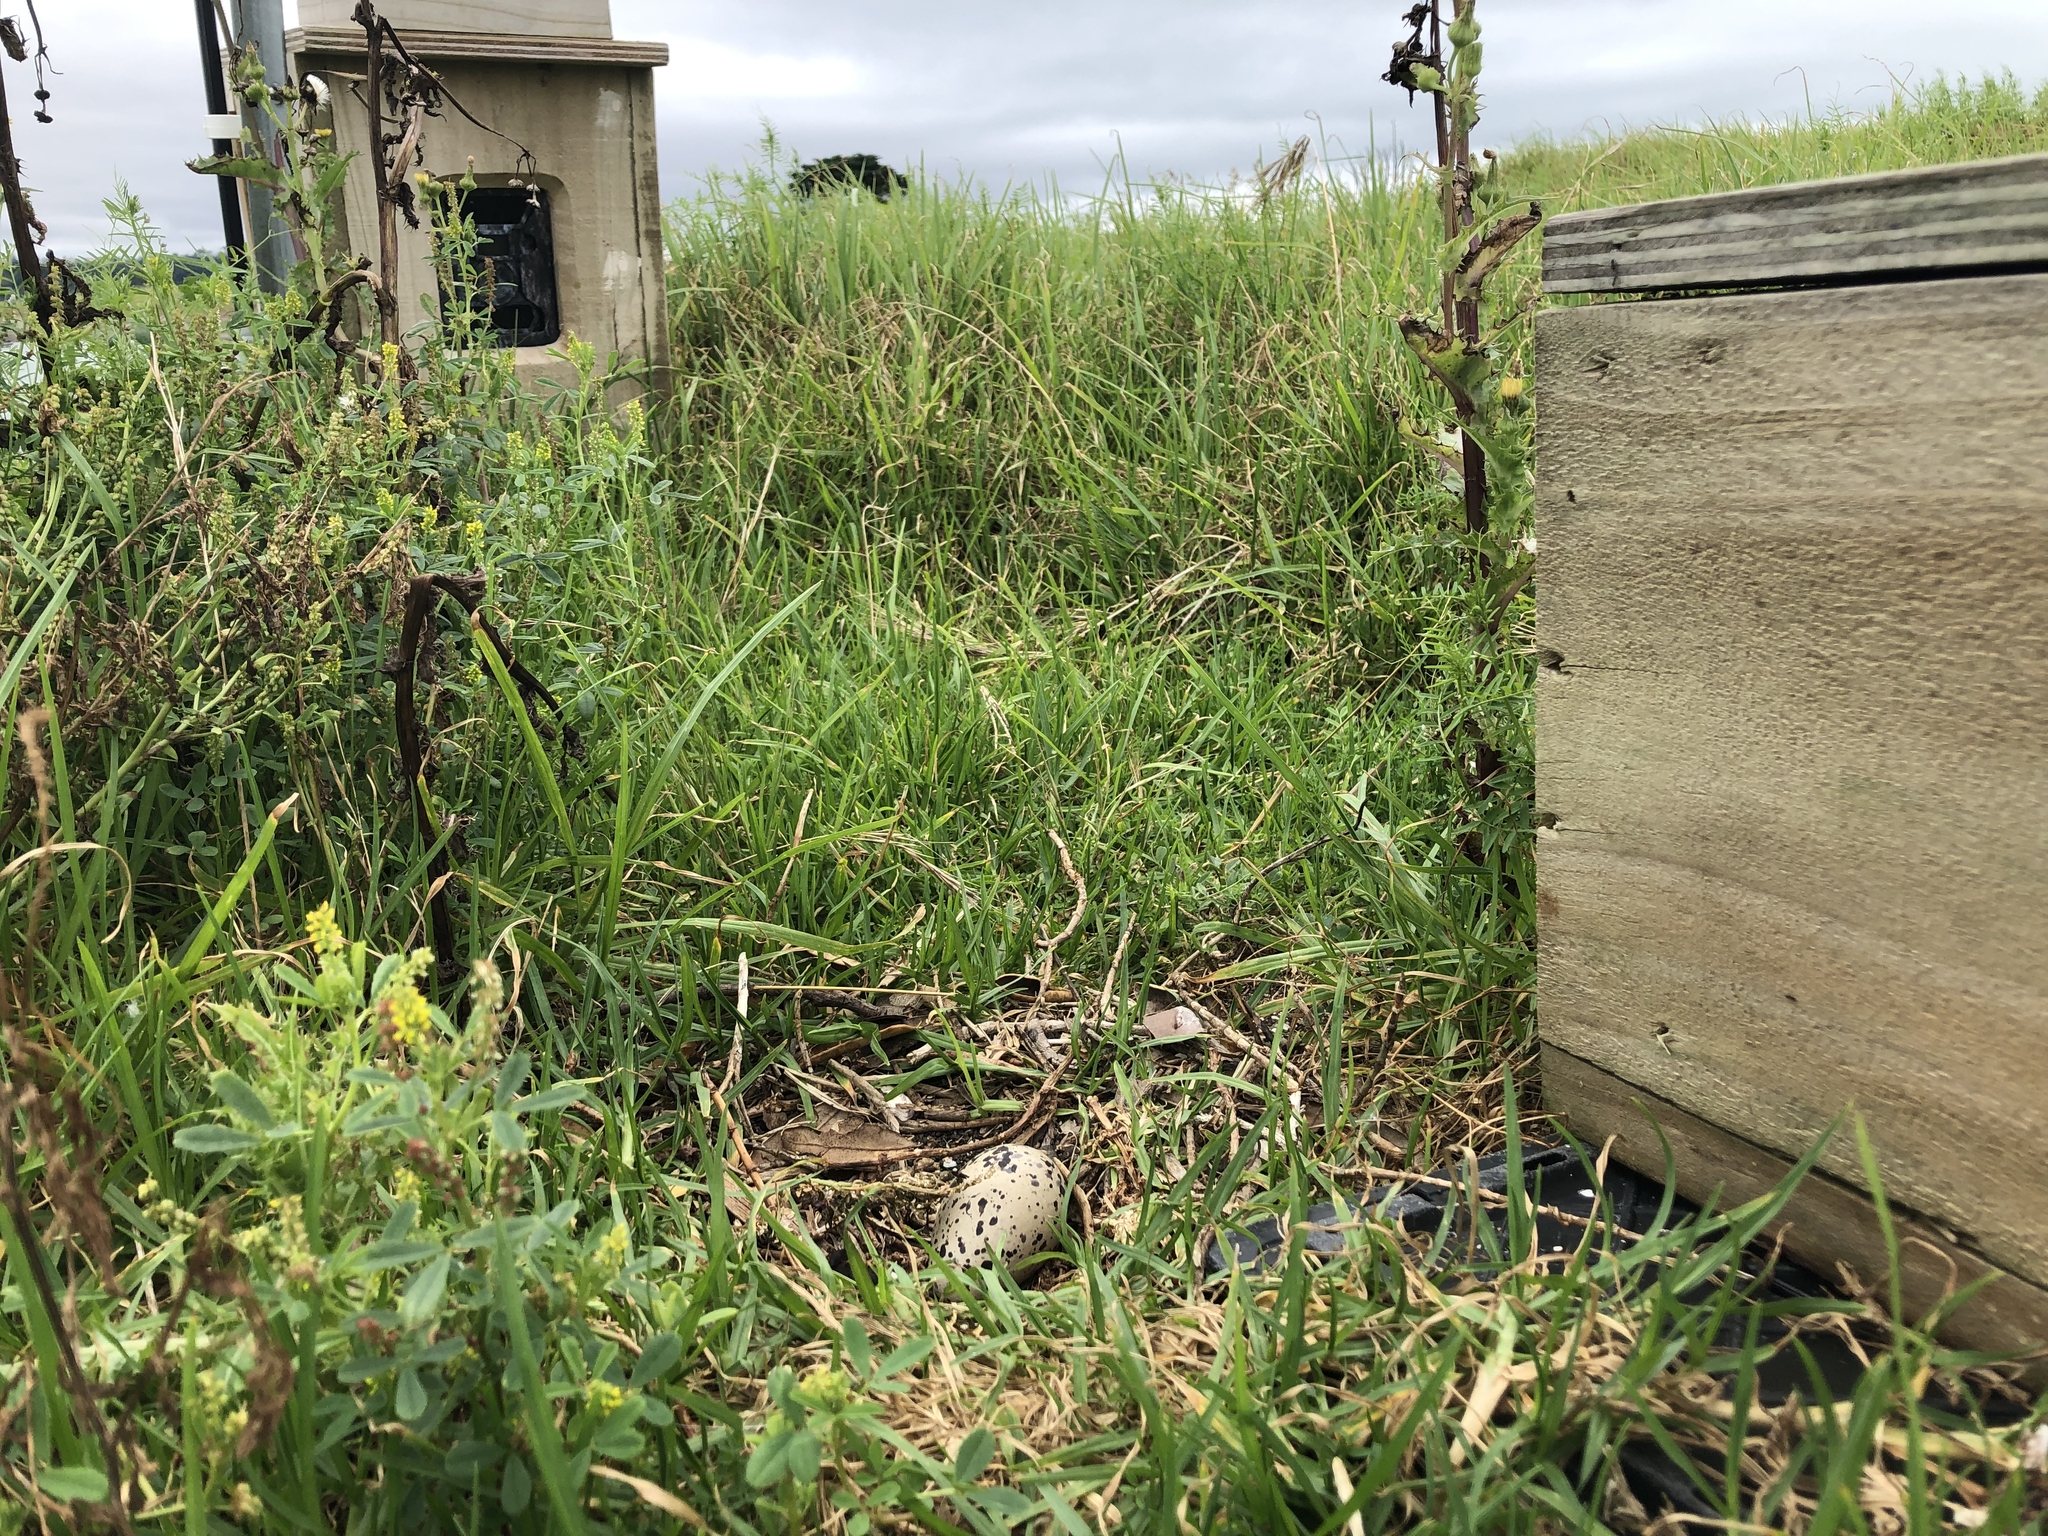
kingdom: Animalia
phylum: Chordata
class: Aves
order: Charadriiformes
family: Haematopodidae
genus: Haematopus
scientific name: Haematopus unicolor
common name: Variable oystercatcher
